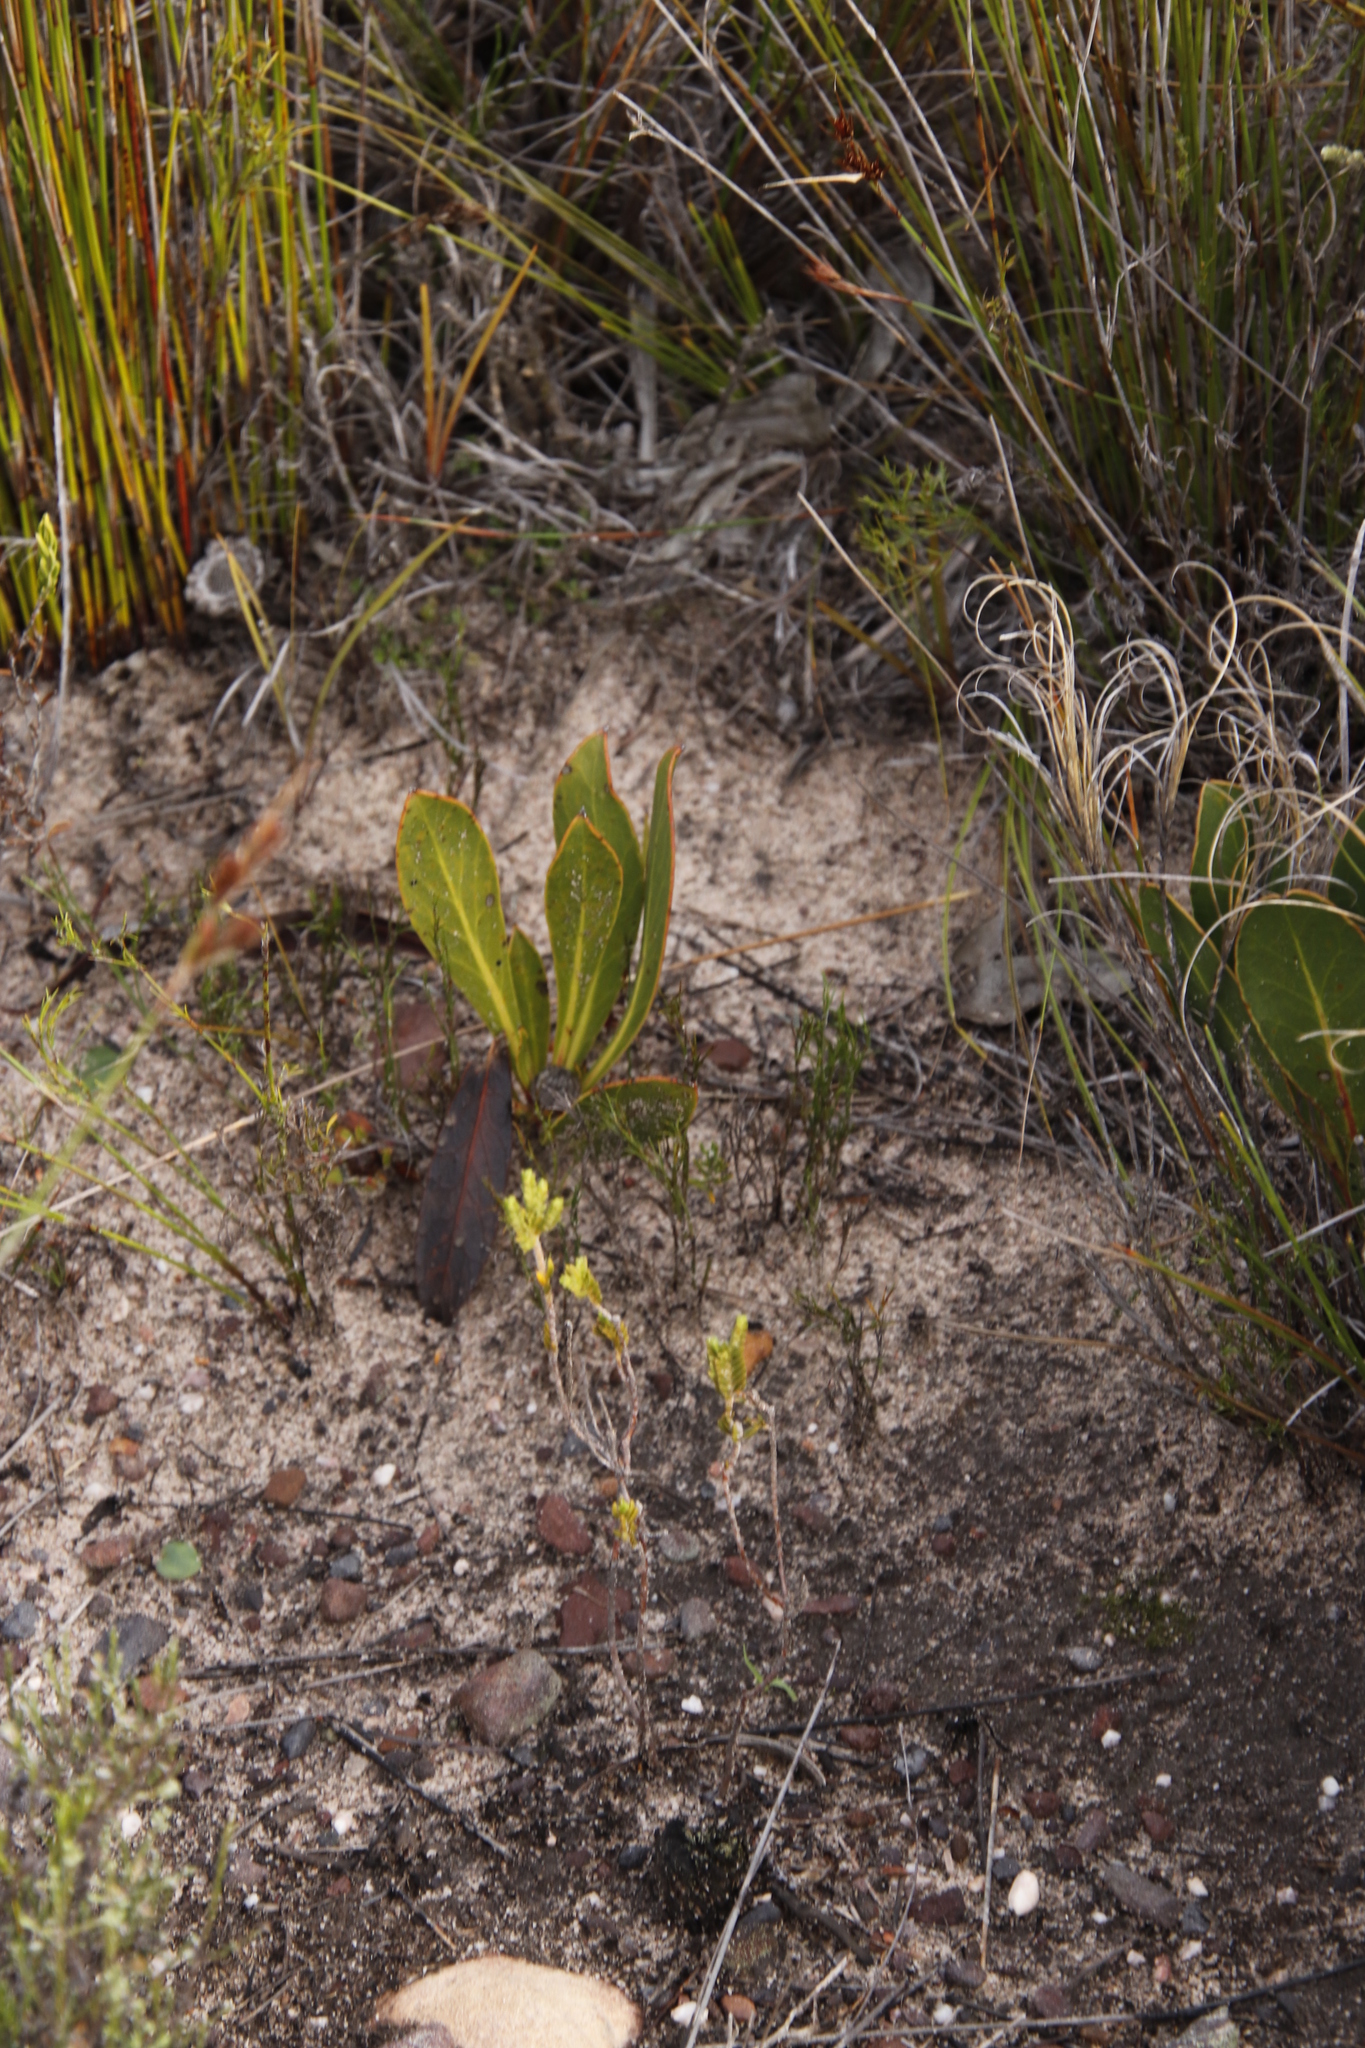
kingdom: Plantae
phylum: Tracheophyta
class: Magnoliopsida
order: Proteales
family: Proteaceae
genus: Protea
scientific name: Protea acaulos
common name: Common ground sugarbush
